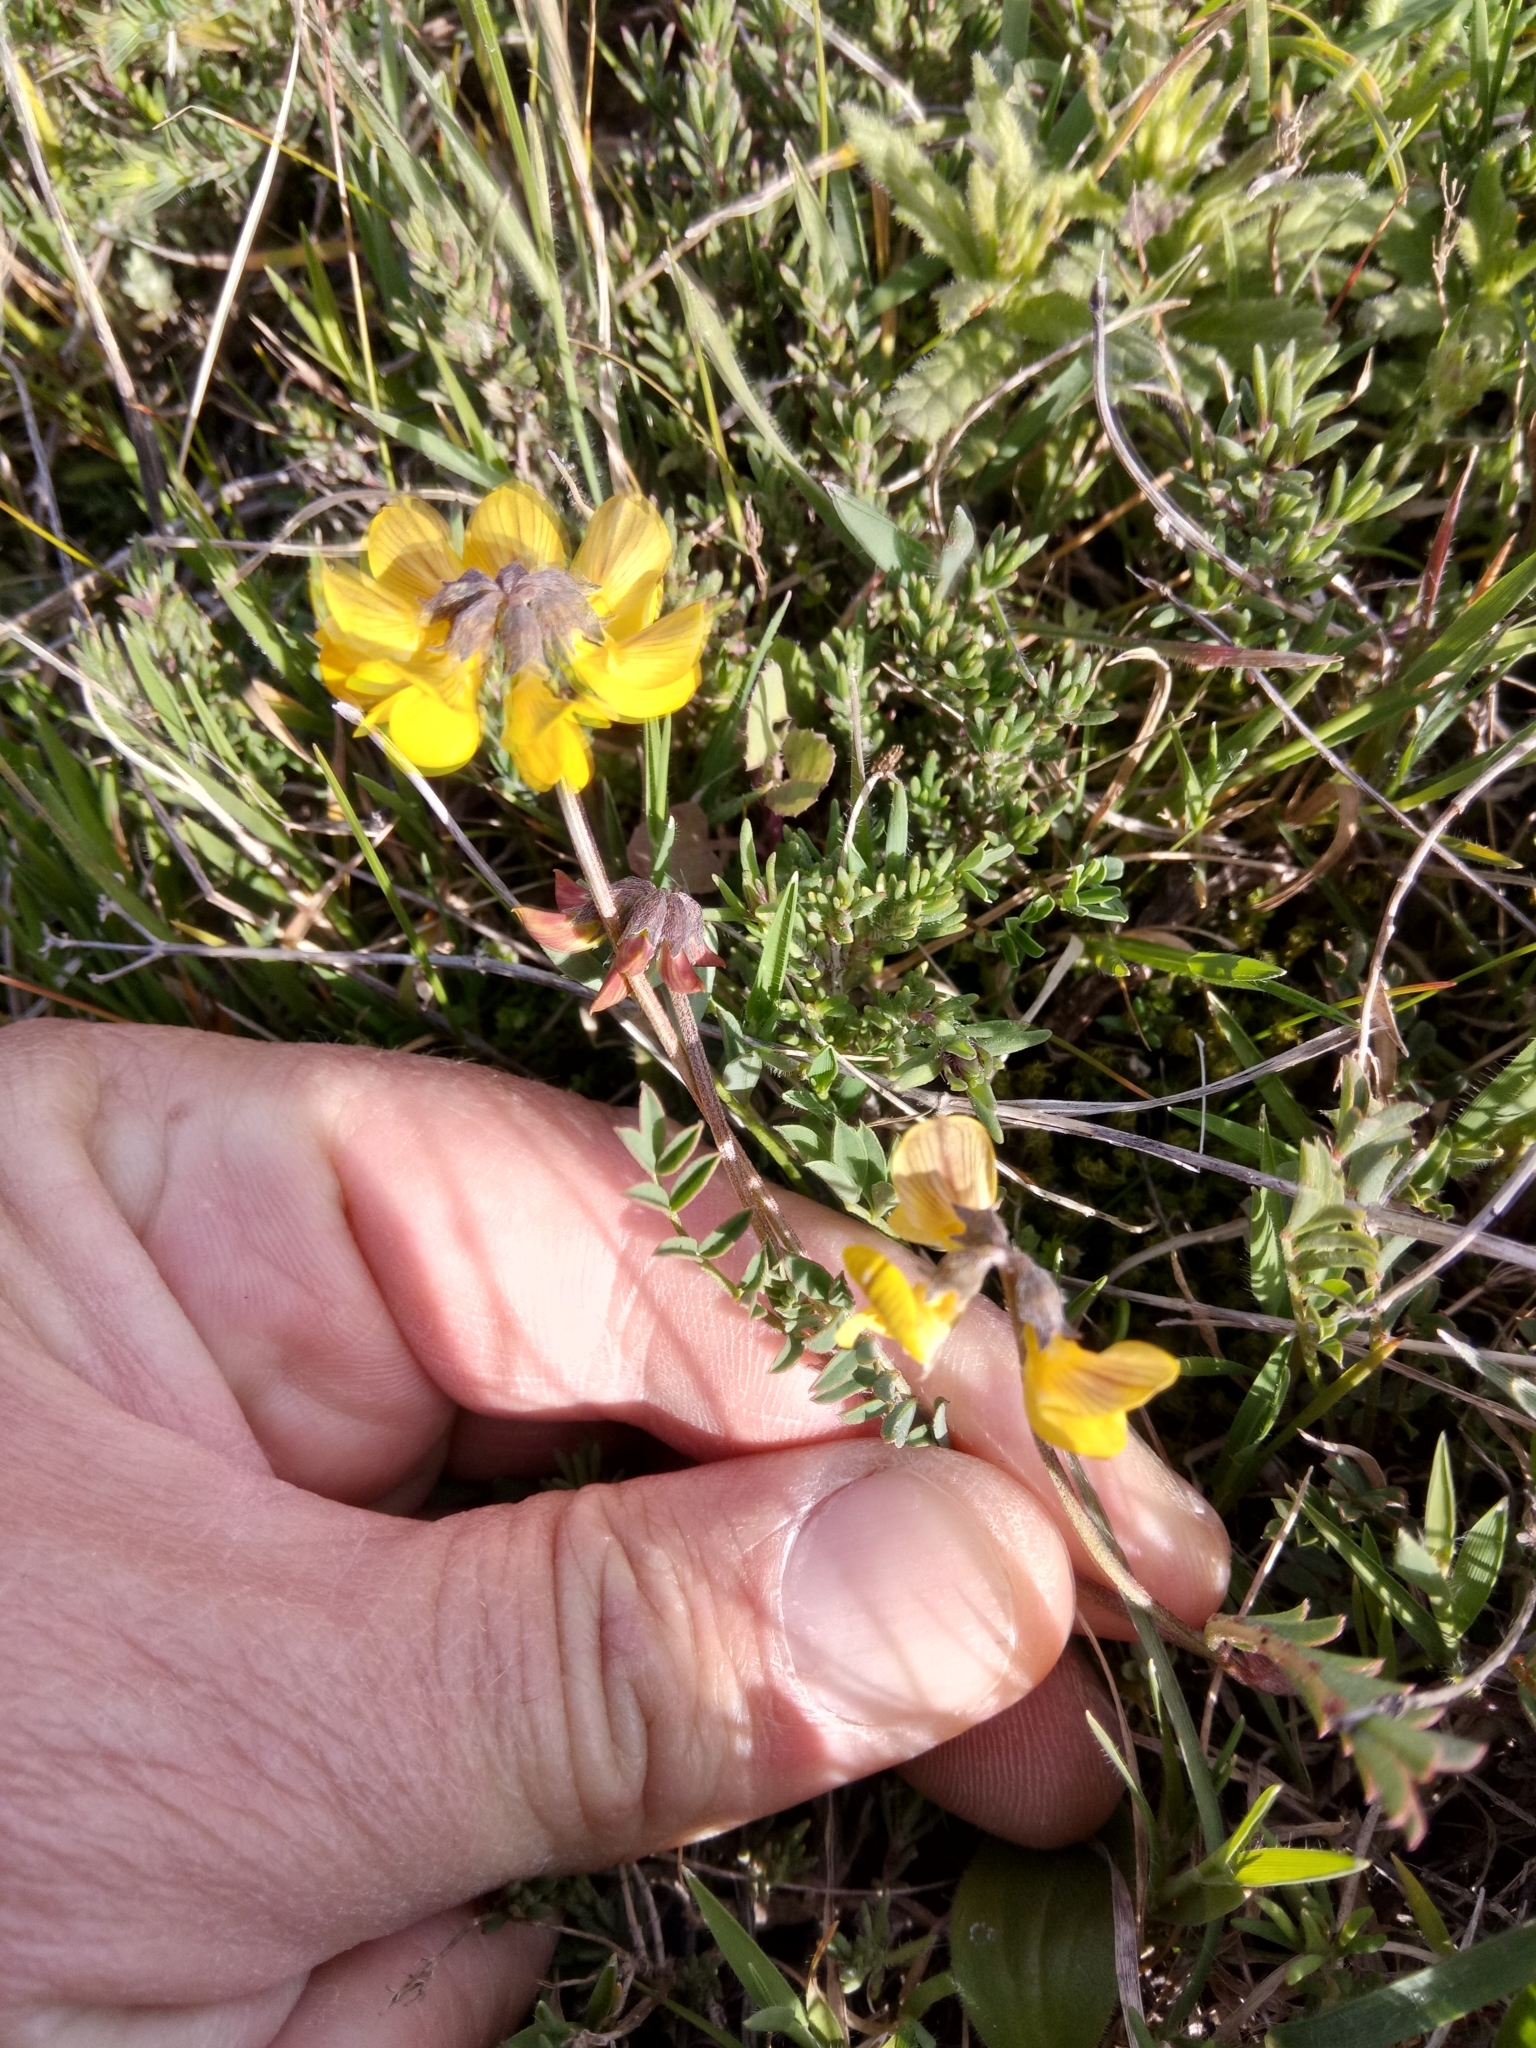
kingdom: Plantae
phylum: Tracheophyta
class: Magnoliopsida
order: Fabales
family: Fabaceae
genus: Hippocrepis
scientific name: Hippocrepis atlantica
